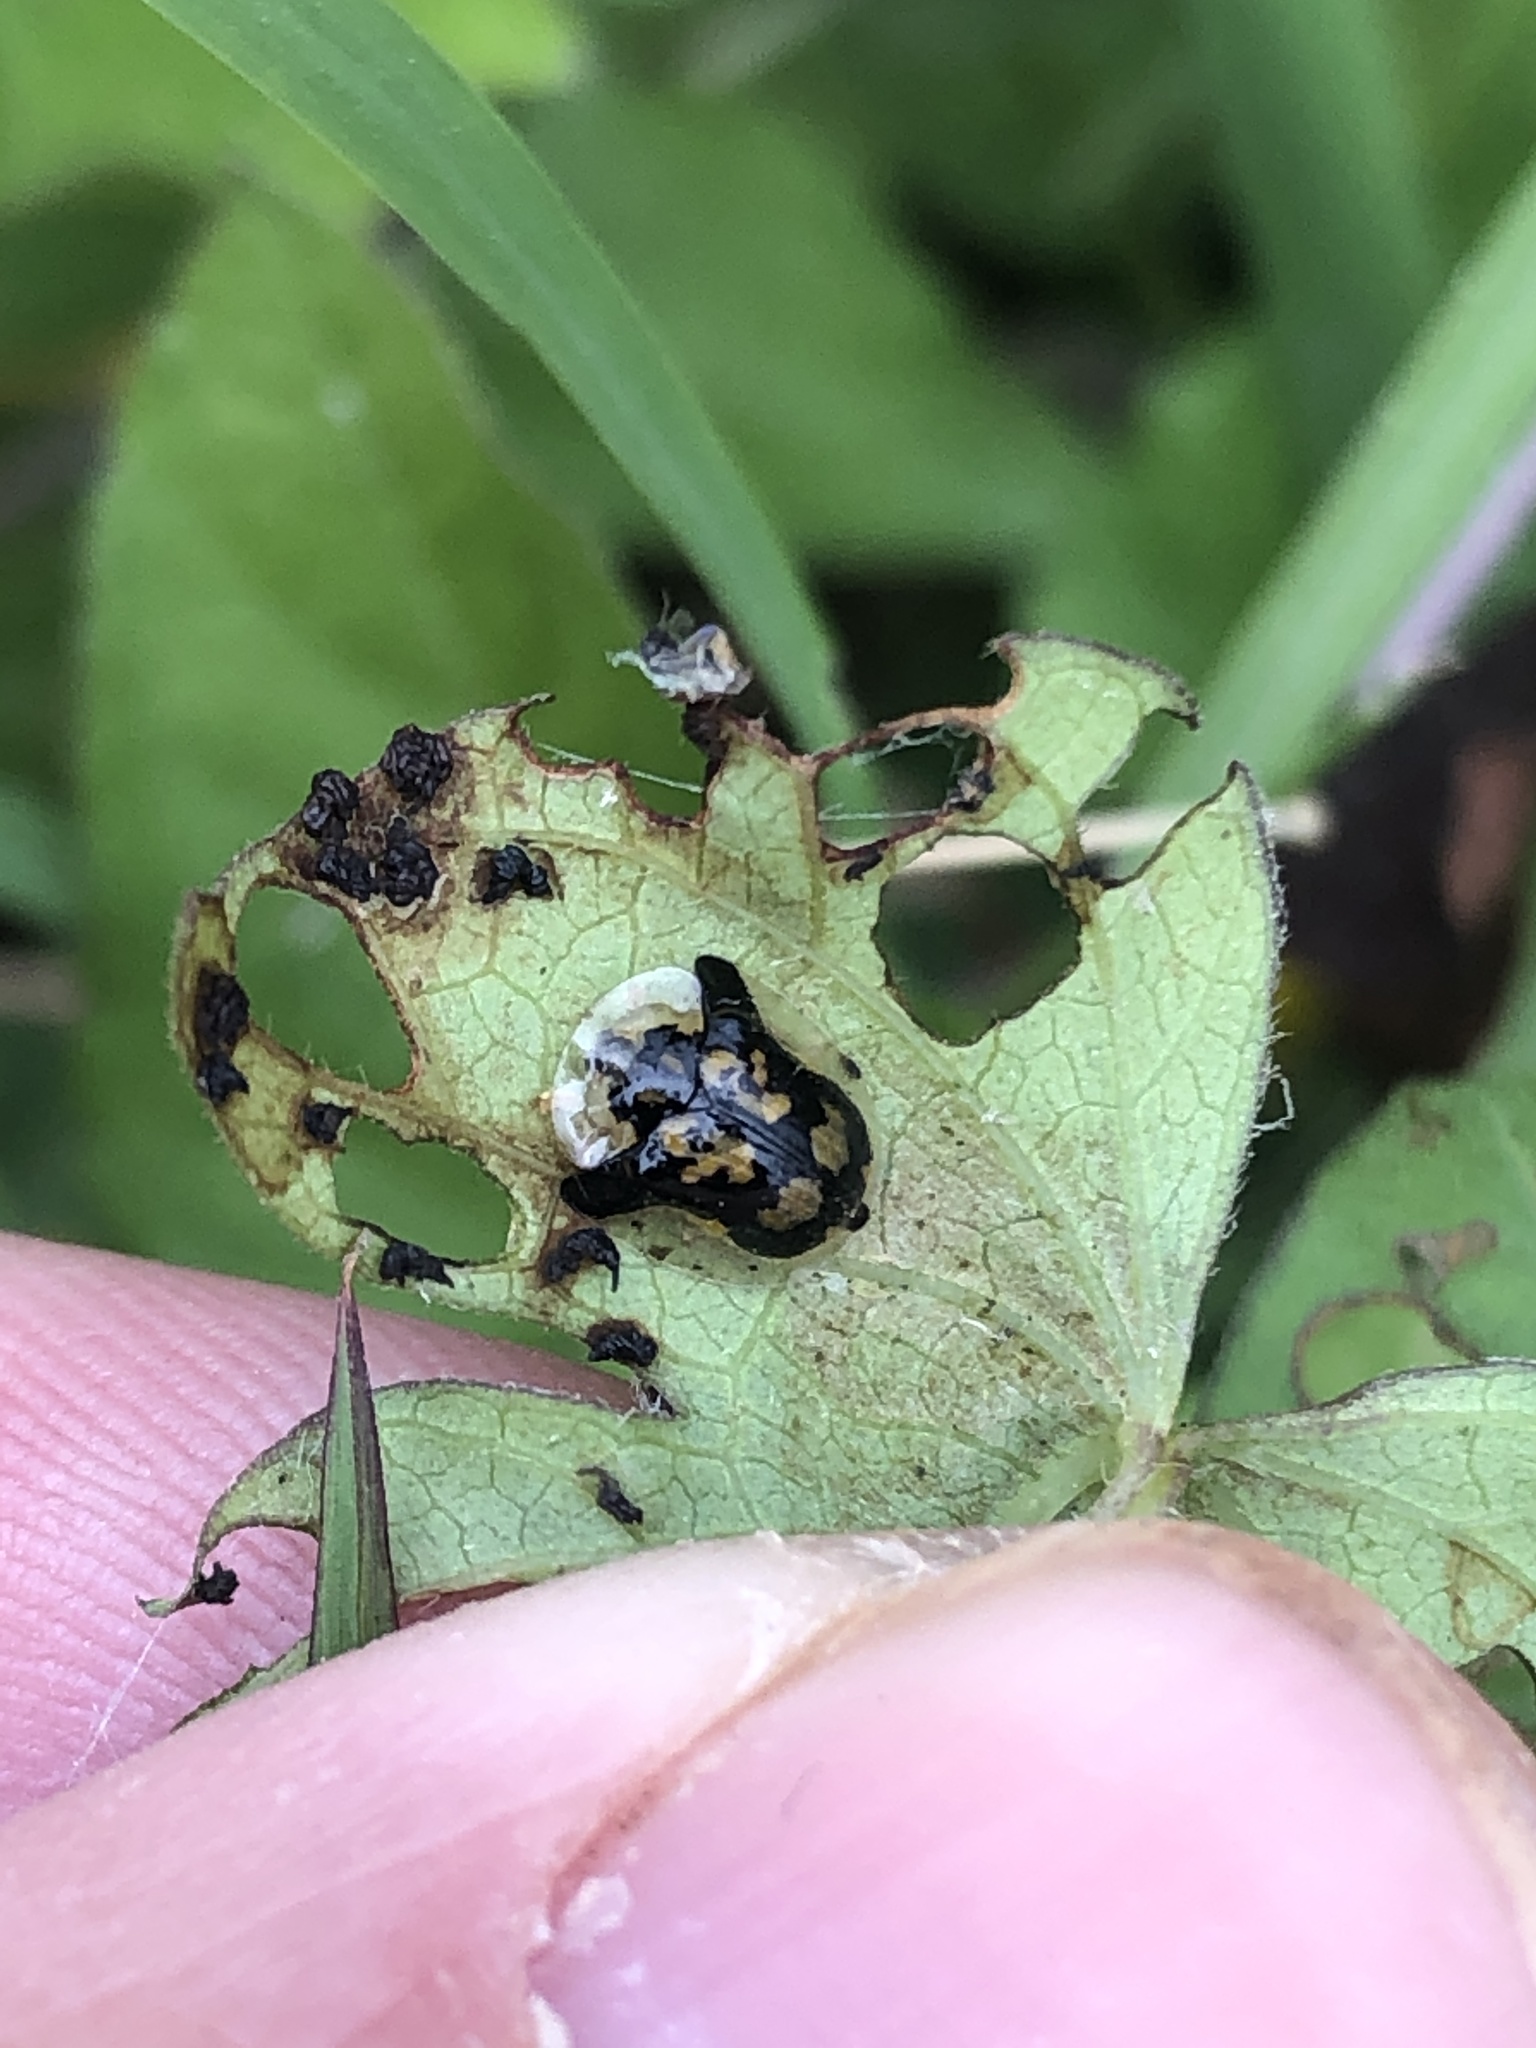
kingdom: Animalia
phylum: Arthropoda
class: Insecta
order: Coleoptera
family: Chrysomelidae
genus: Deloyala
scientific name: Deloyala guttata
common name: Mottled tortoise beetle
